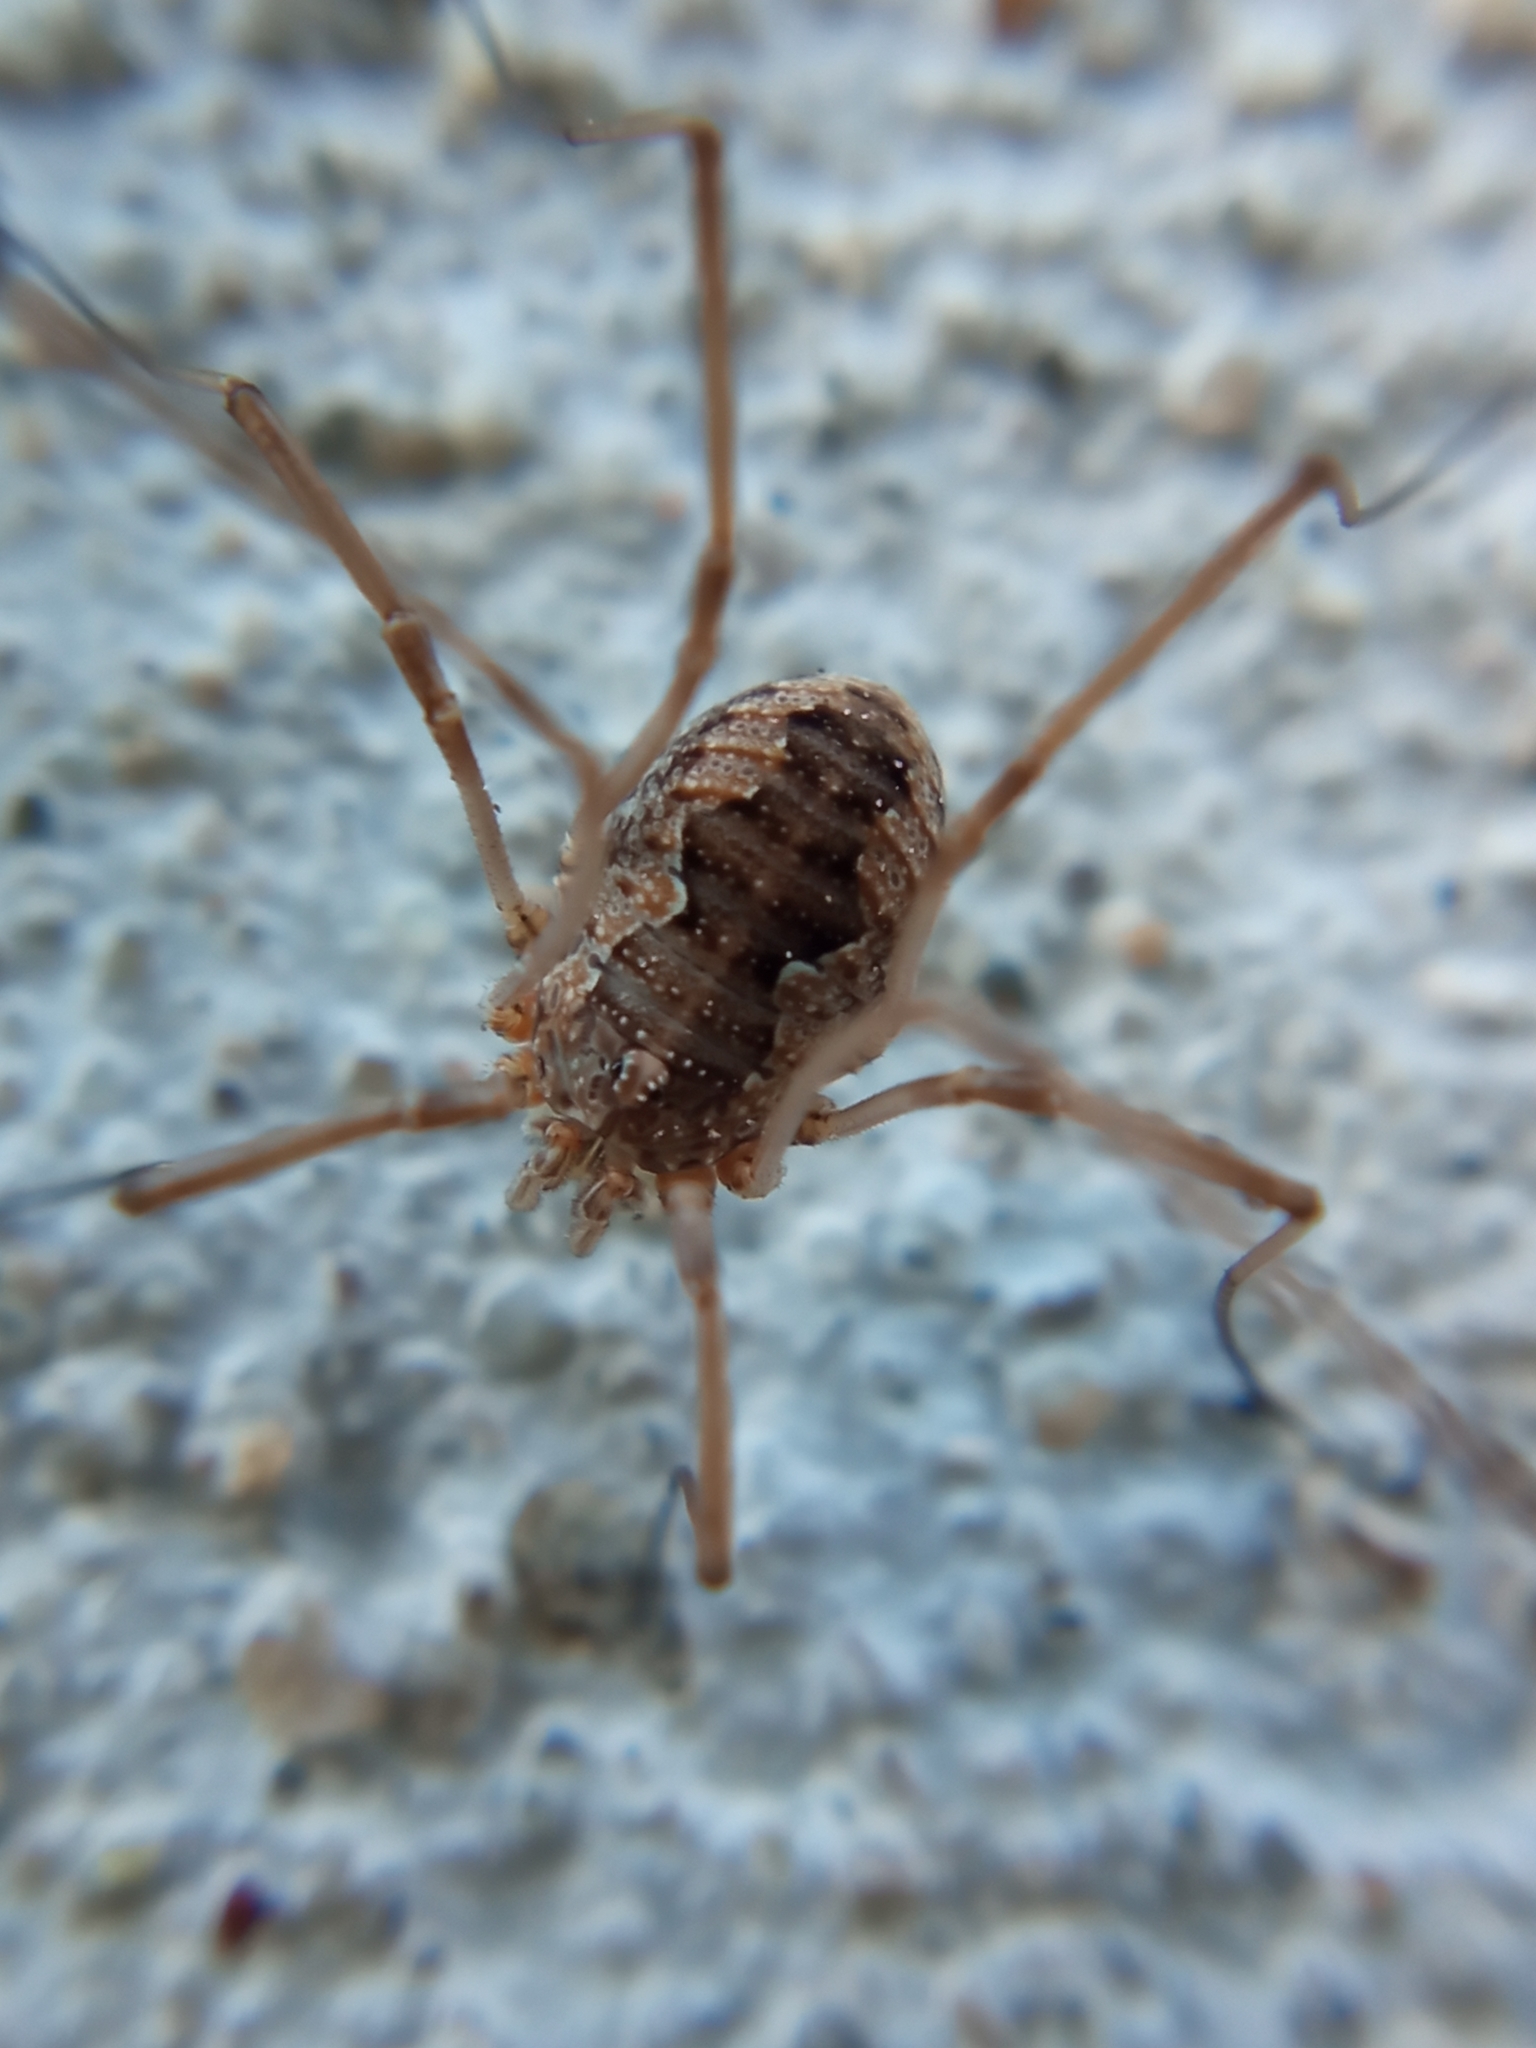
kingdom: Animalia
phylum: Arthropoda
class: Arachnida
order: Opiliones
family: Phalangiidae
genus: Phalangium
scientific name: Phalangium opilio
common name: Daddy longleg
